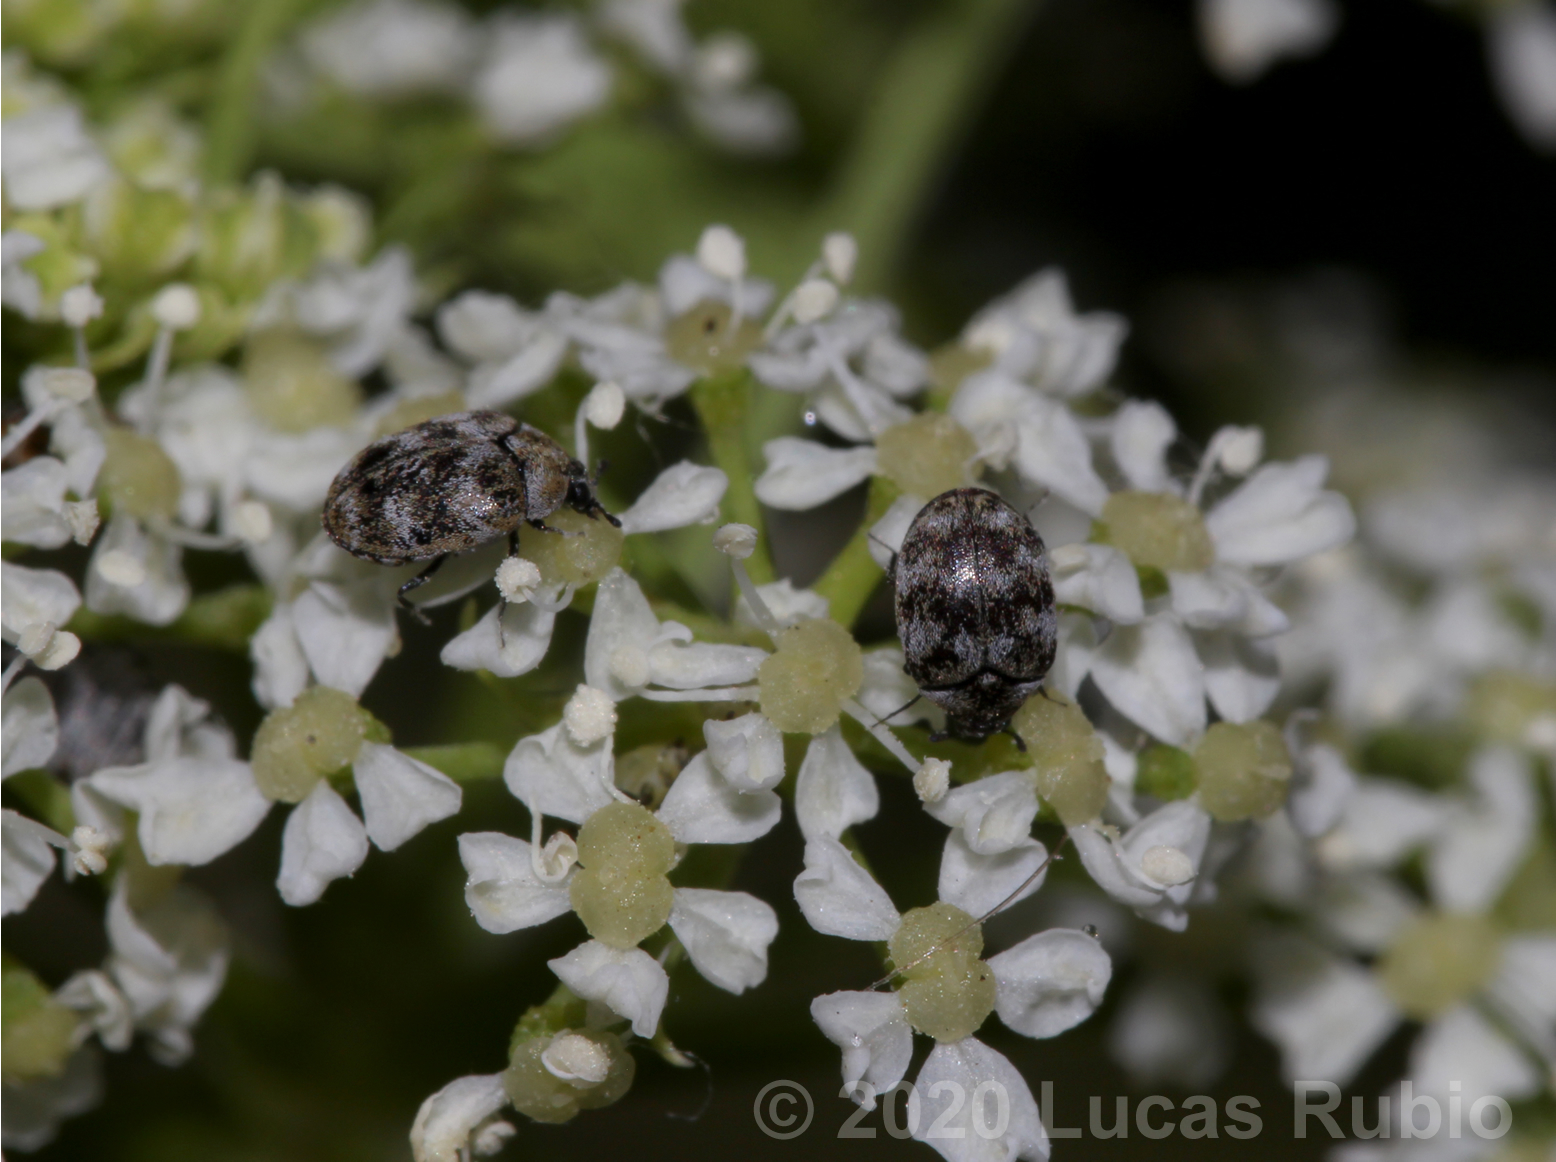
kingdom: Animalia
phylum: Arthropoda
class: Insecta
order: Coleoptera
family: Dermestidae
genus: Anthrenus
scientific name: Anthrenus verbasci
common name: Varied carpet beetle
